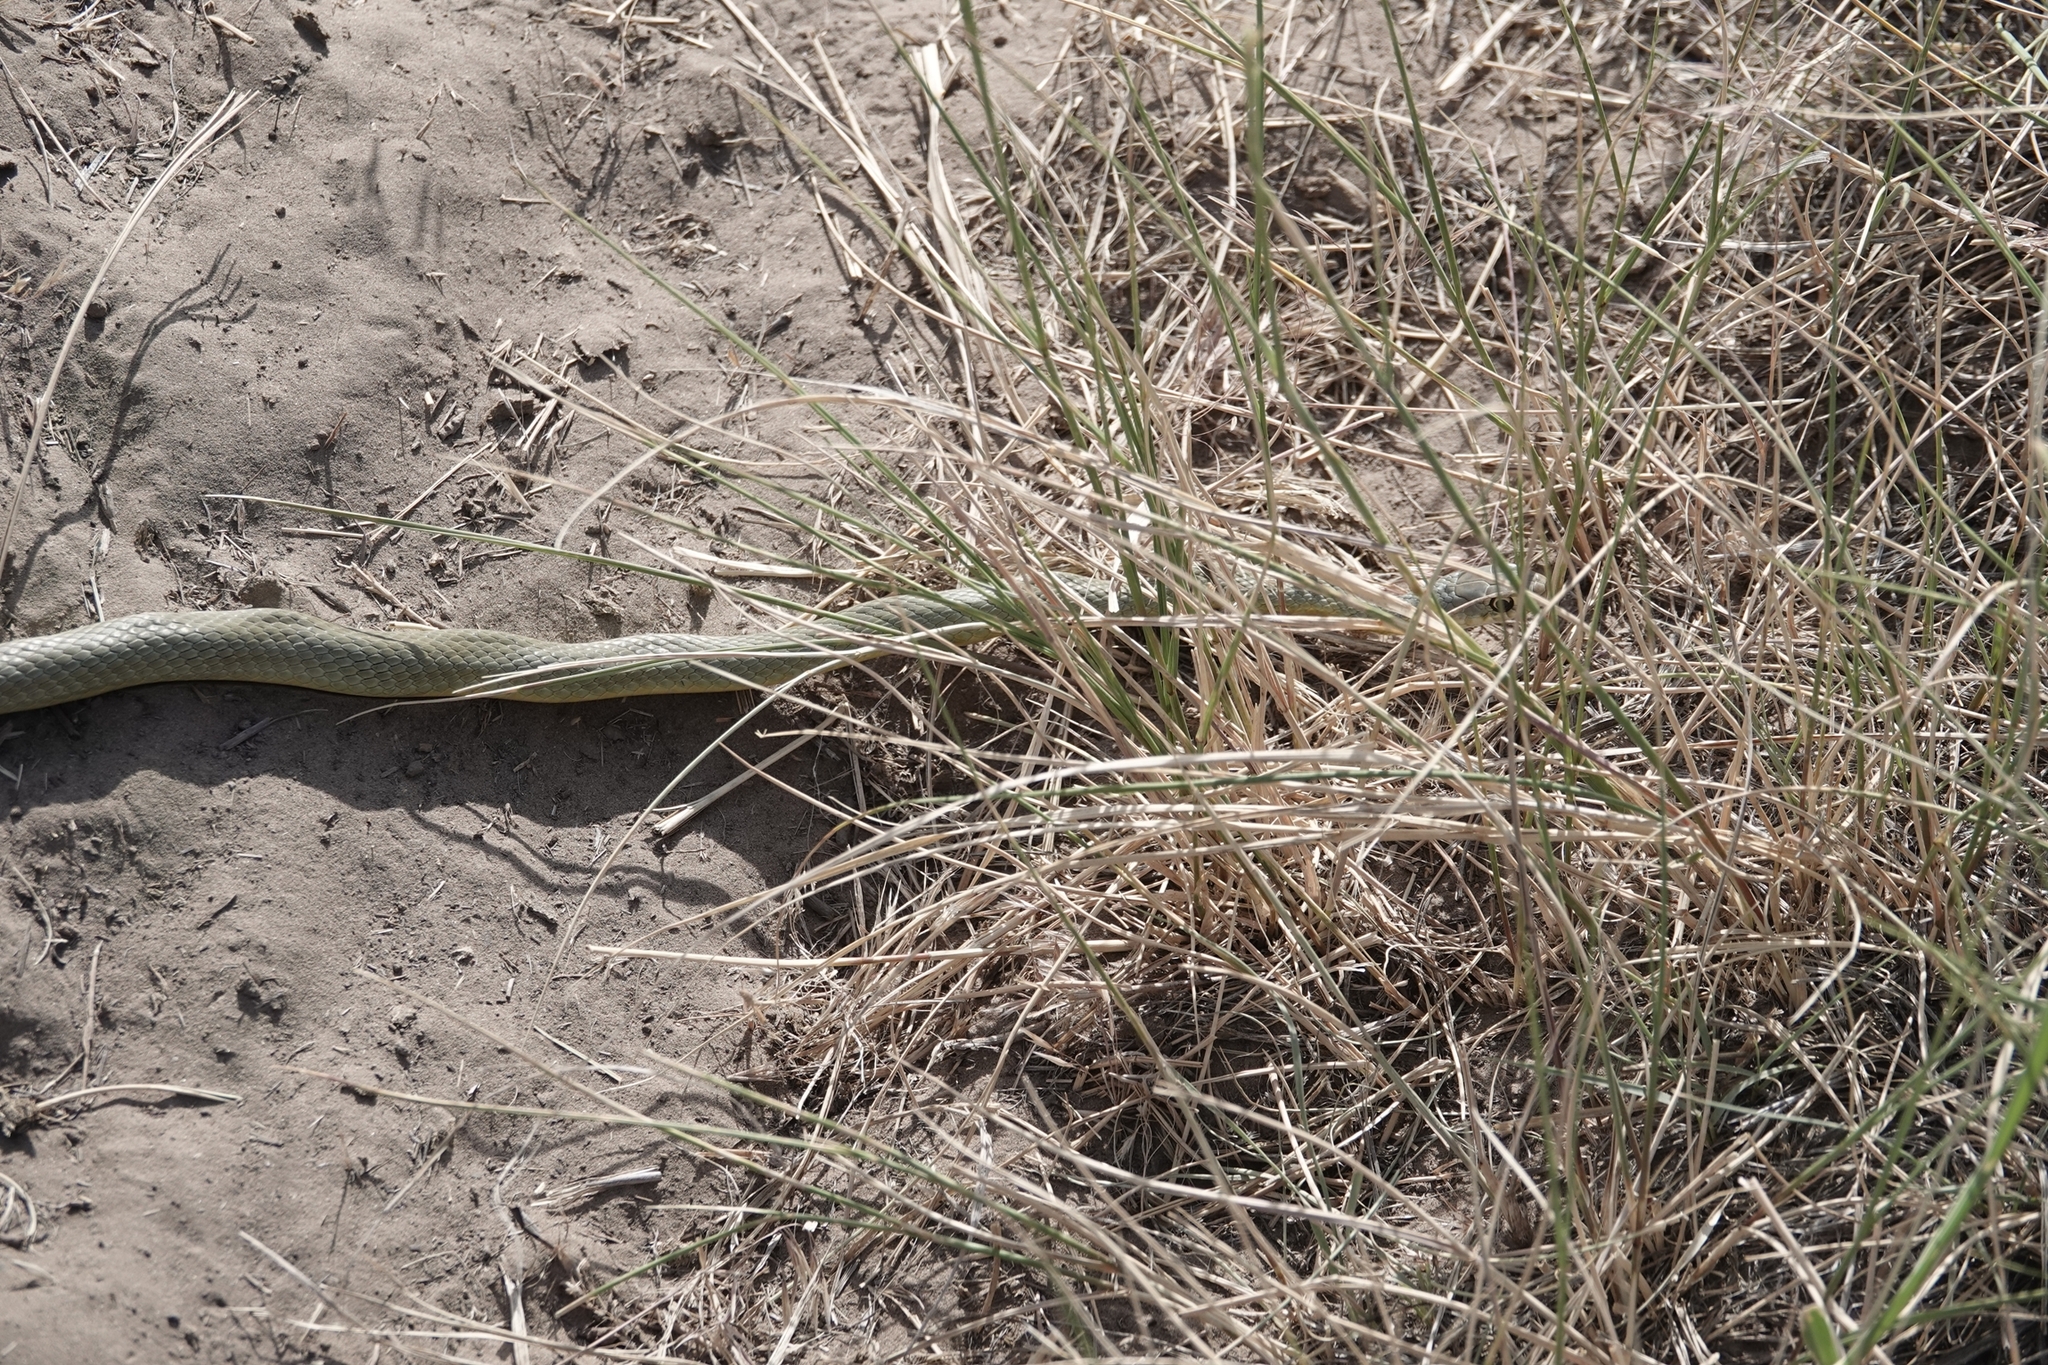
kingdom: Animalia
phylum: Chordata
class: Squamata
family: Colubridae
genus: Coluber
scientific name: Coluber constrictor
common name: Eastern racer
